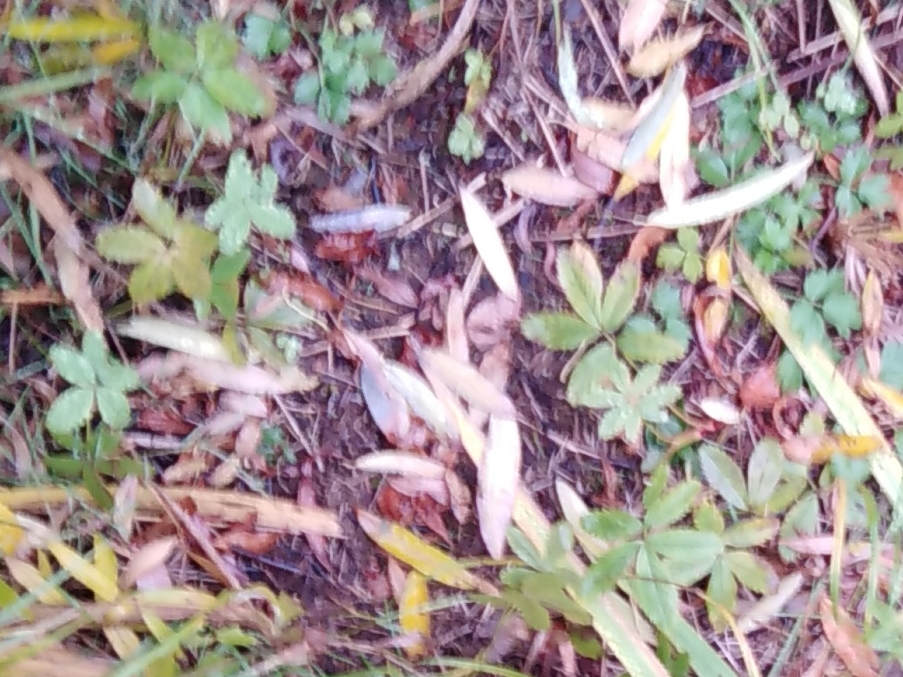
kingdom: Plantae
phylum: Tracheophyta
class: Magnoliopsida
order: Rosales
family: Rosaceae
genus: Comarum
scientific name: Comarum palustre
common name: Marsh cinquefoil
